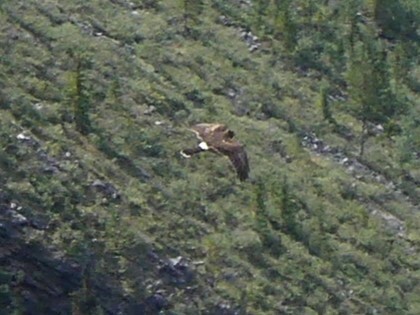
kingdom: Animalia
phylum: Chordata
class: Aves
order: Accipitriformes
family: Accipitridae
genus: Circus
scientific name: Circus cyaneus
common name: Hen harrier
